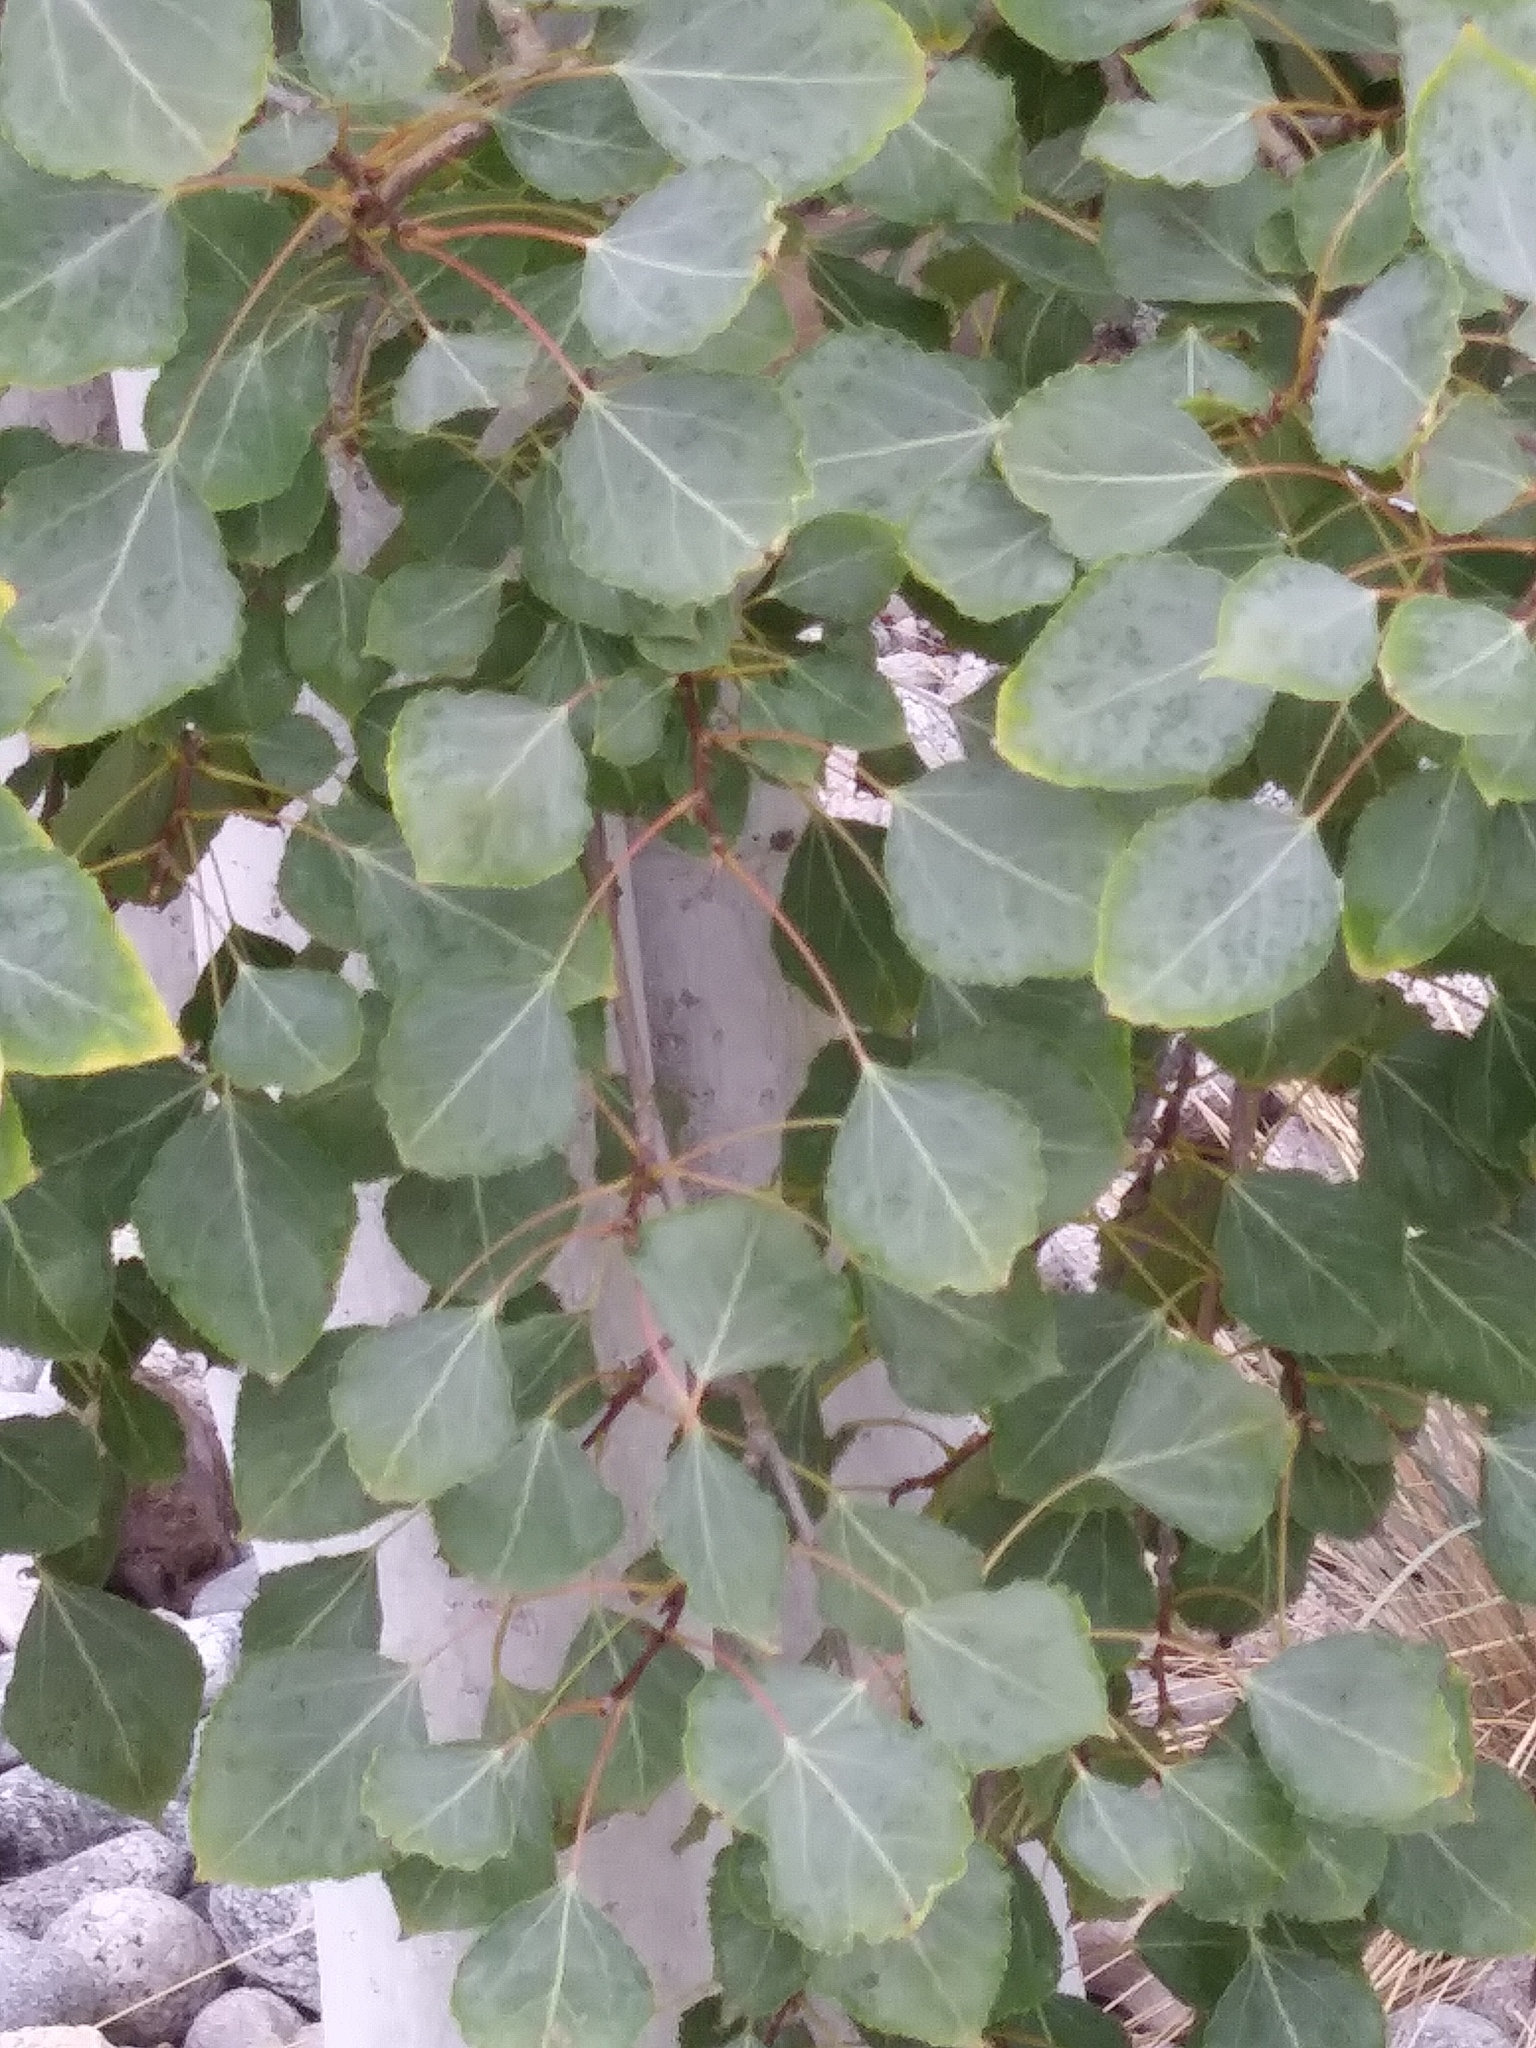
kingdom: Plantae
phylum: Tracheophyta
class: Magnoliopsida
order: Malpighiales
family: Salicaceae
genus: Populus
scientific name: Populus tremuloides
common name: Quaking aspen
